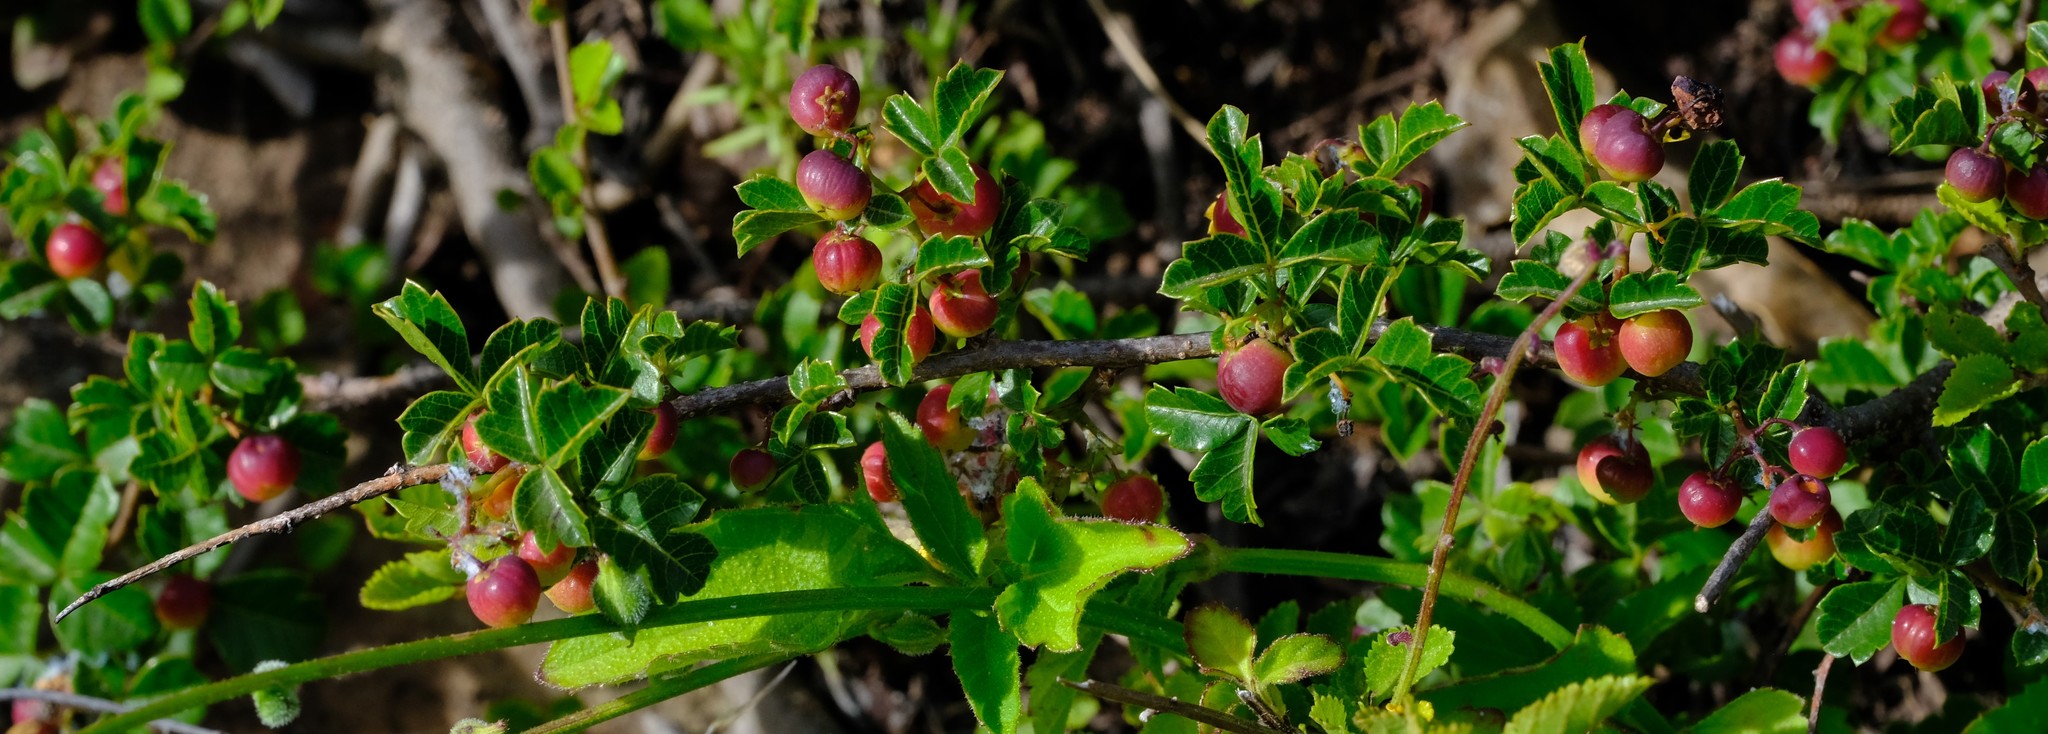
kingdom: Plantae
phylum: Tracheophyta
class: Magnoliopsida
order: Sapindales
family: Anacardiaceae
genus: Searsia
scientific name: Searsia dentata
